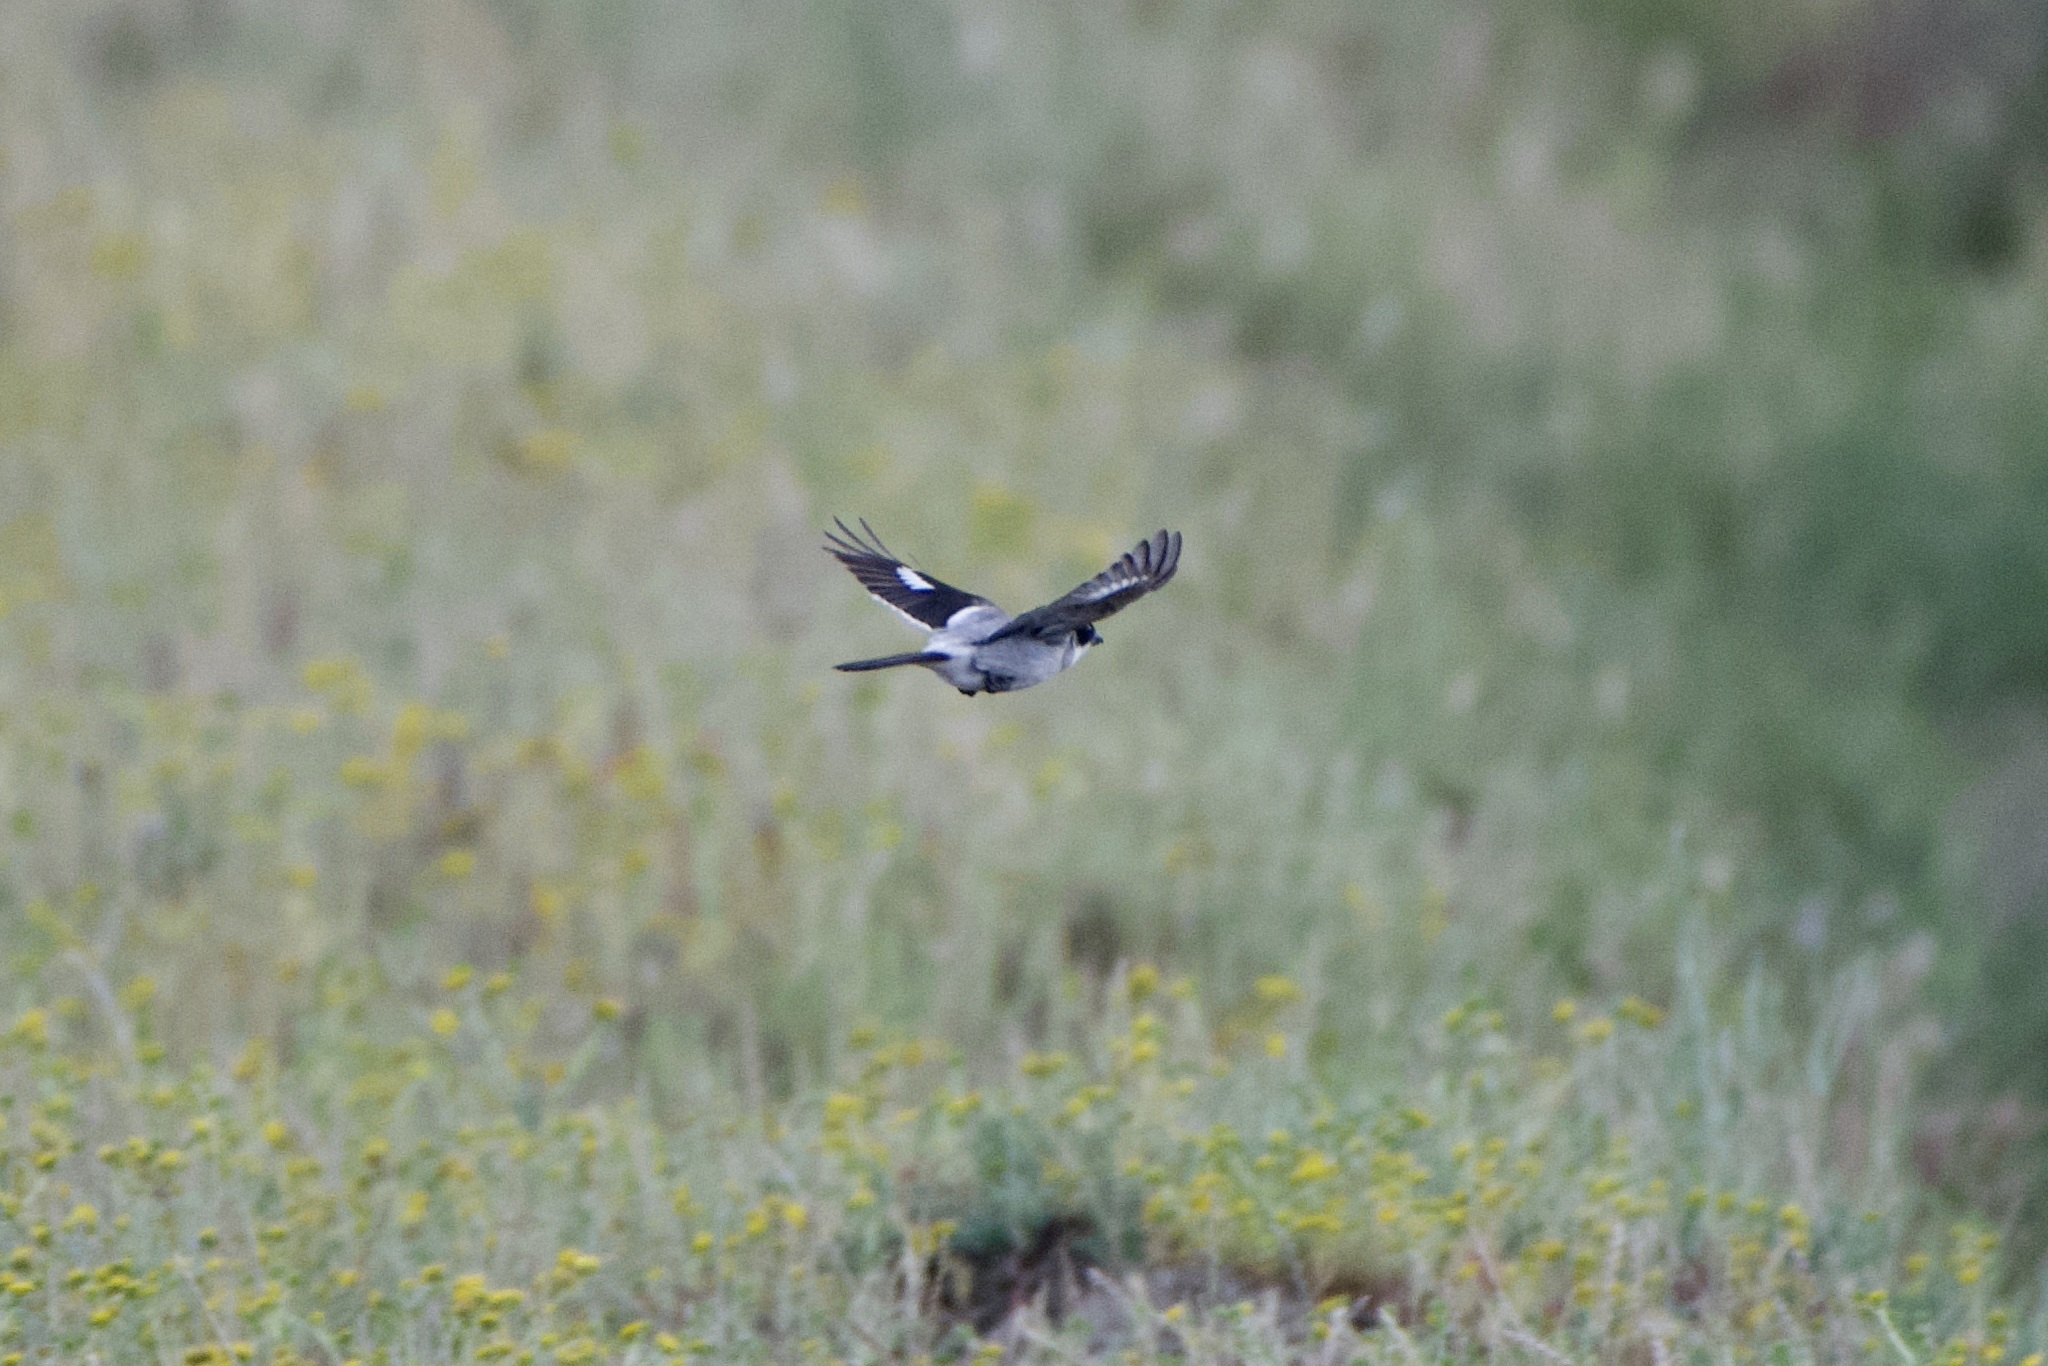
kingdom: Animalia
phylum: Chordata
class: Aves
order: Passeriformes
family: Laniidae
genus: Lanius
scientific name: Lanius ludovicianus
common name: Loggerhead shrike
